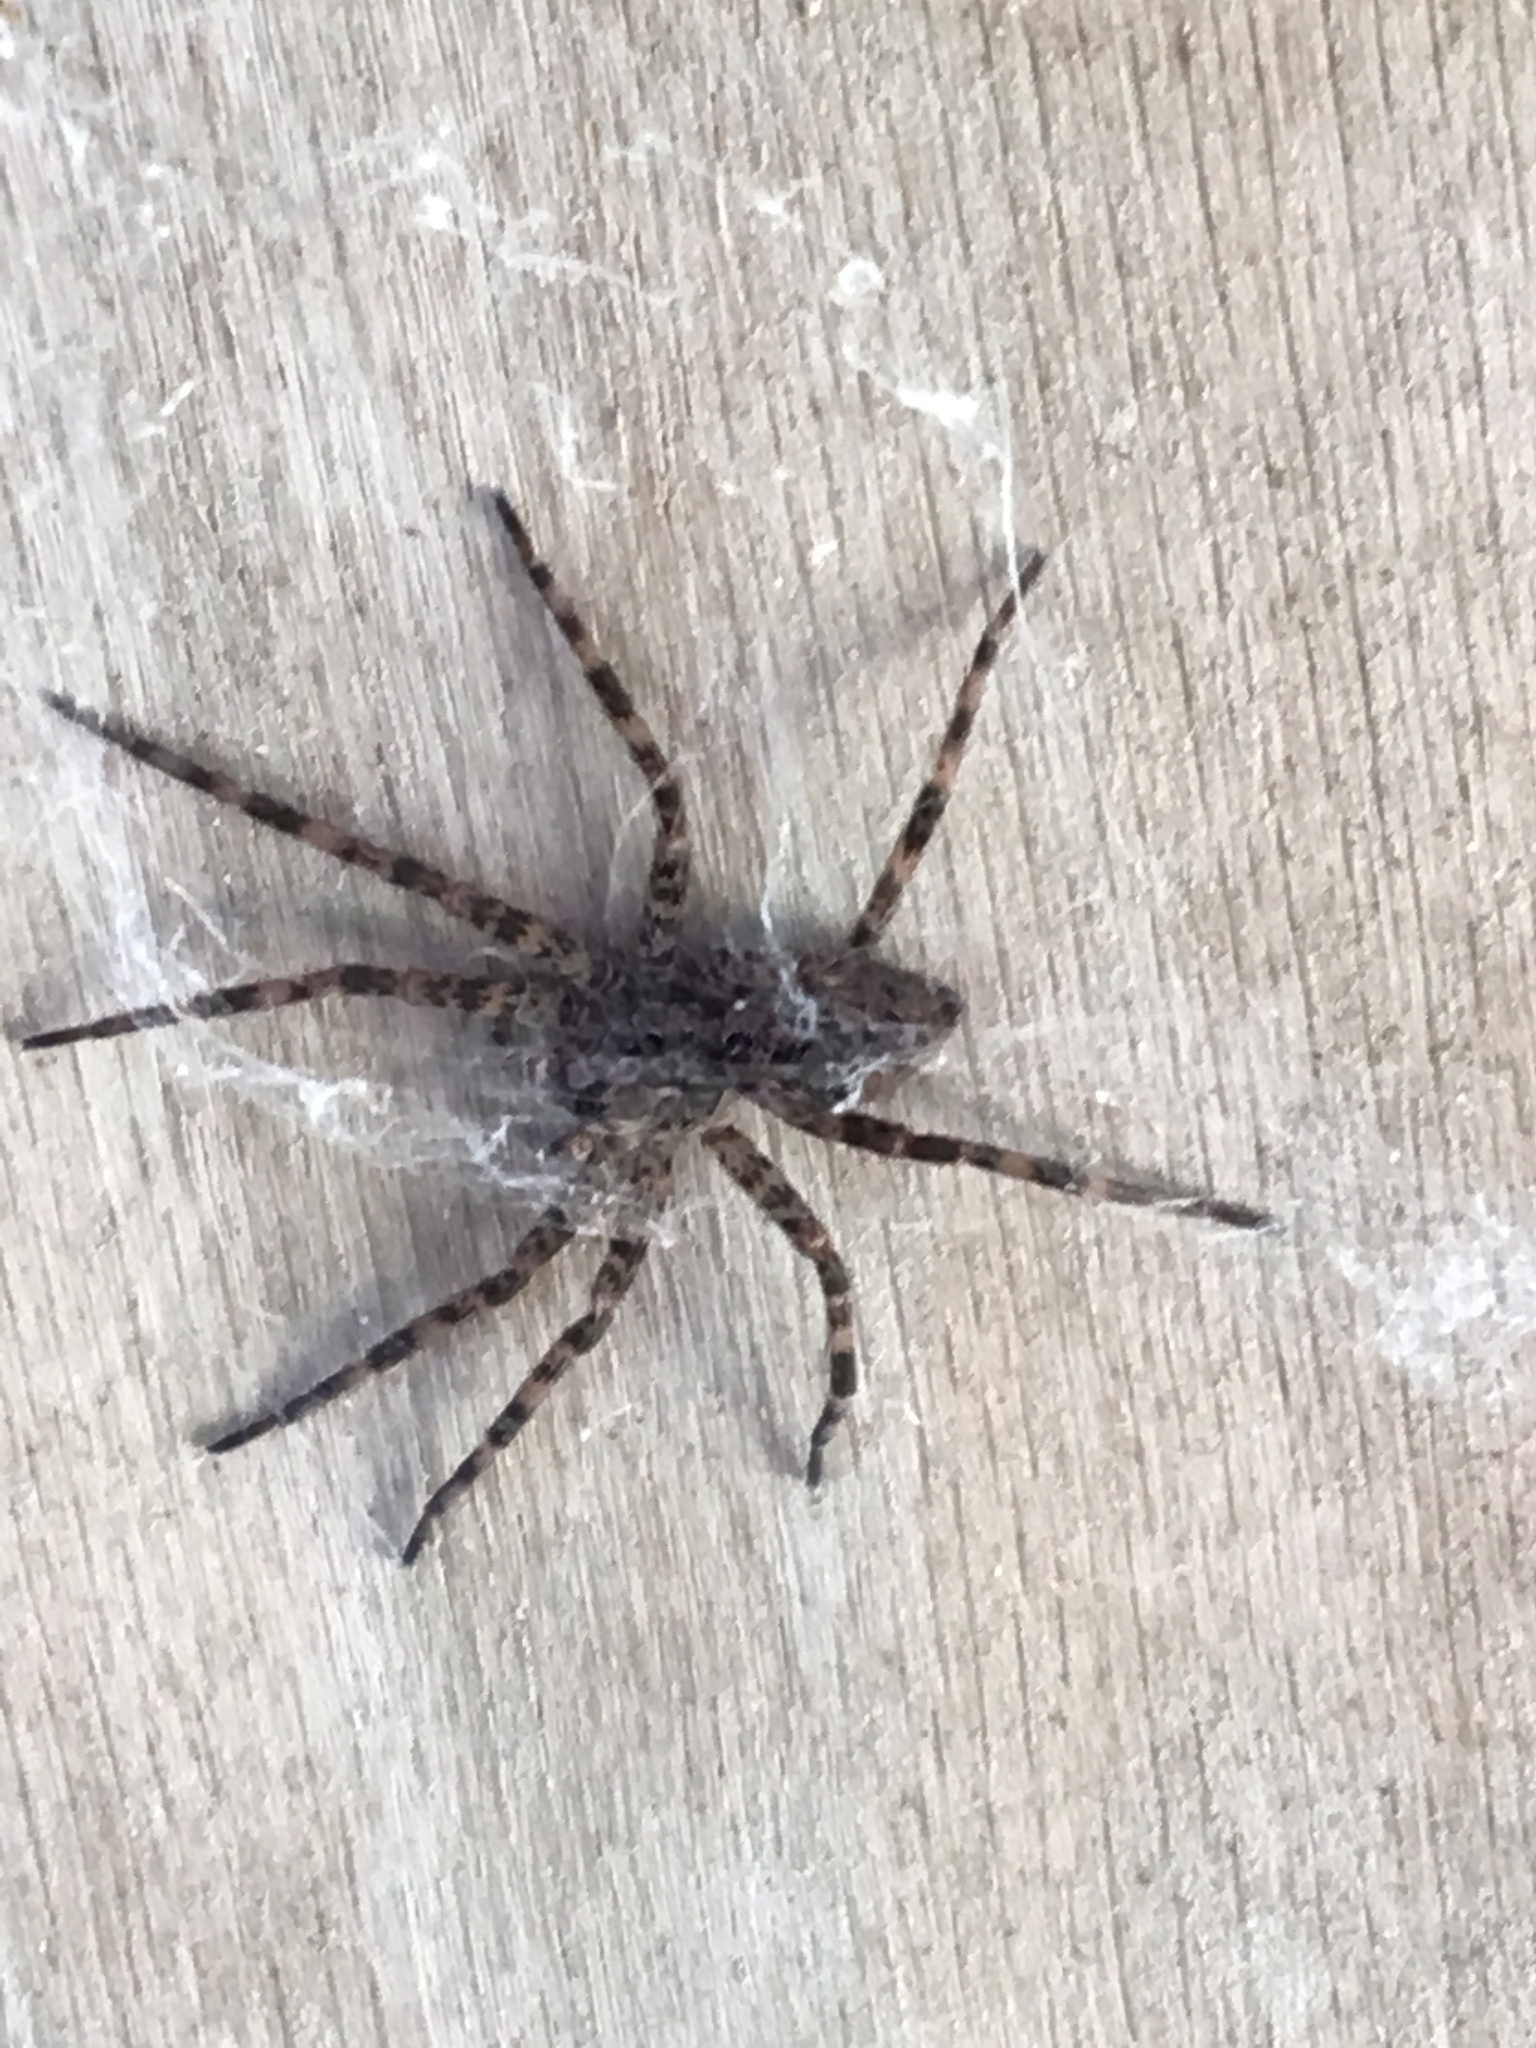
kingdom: Animalia
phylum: Arthropoda
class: Arachnida
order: Araneae
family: Pisauridae
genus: Dolomedes
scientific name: Dolomedes tenebrosus
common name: Dark fishing spider
